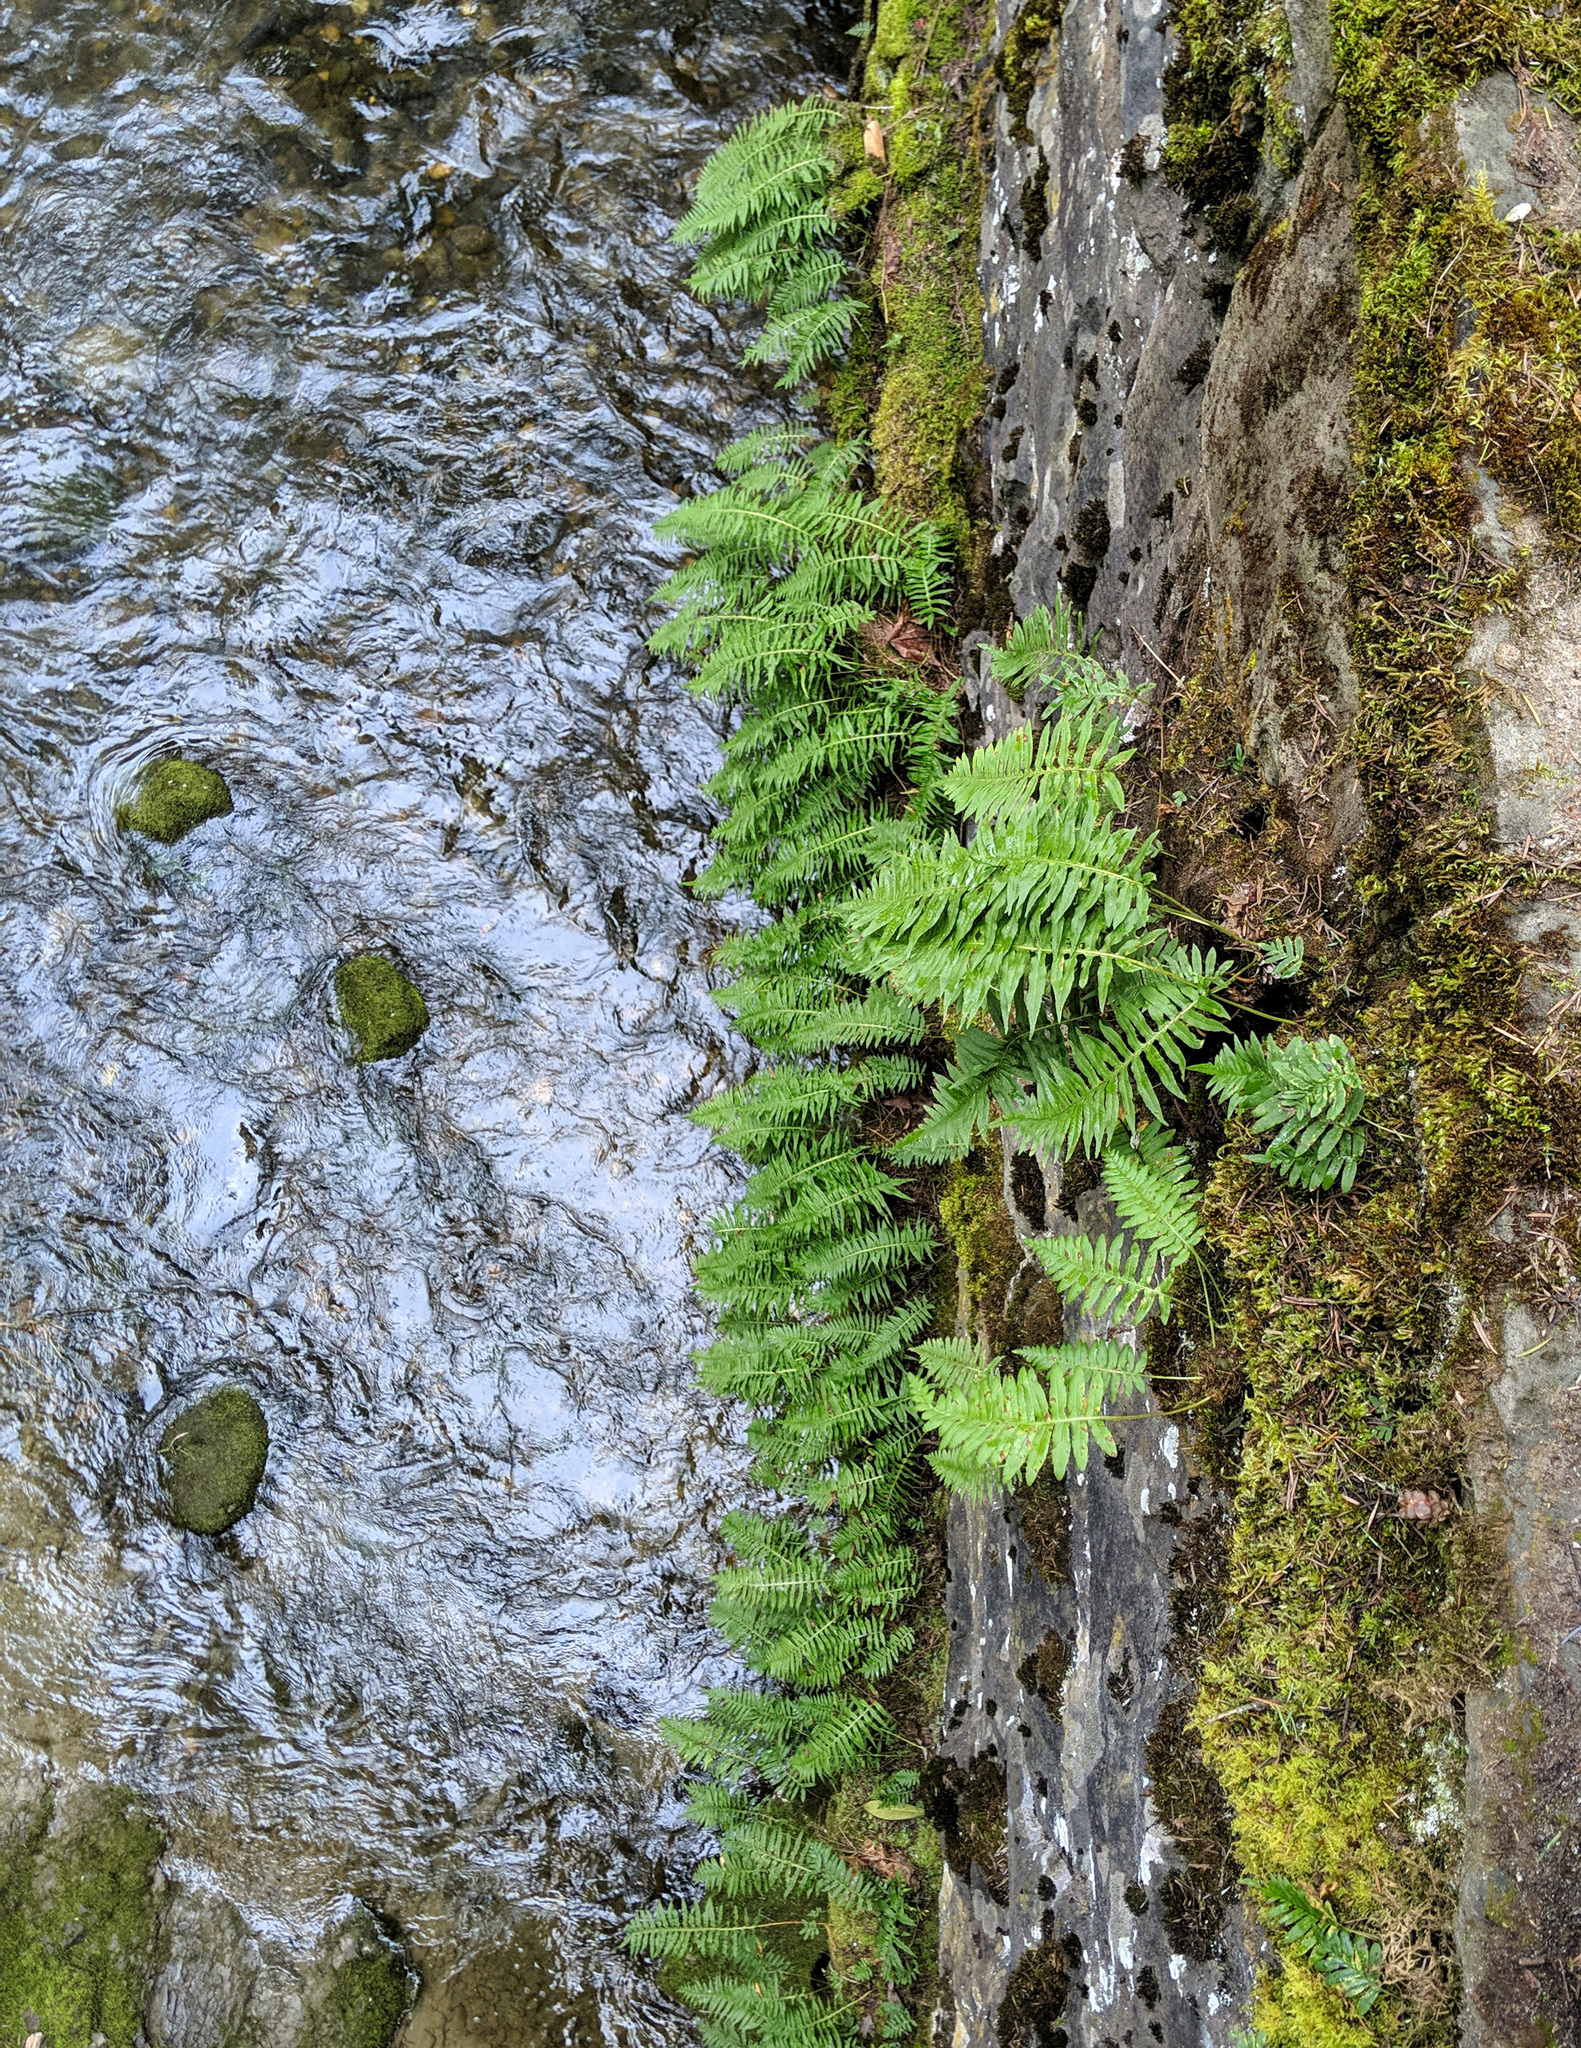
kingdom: Plantae
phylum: Tracheophyta
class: Polypodiopsida
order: Polypodiales
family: Polypodiaceae
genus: Polypodium
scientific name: Polypodium glycyrrhiza
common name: Licorice fern
